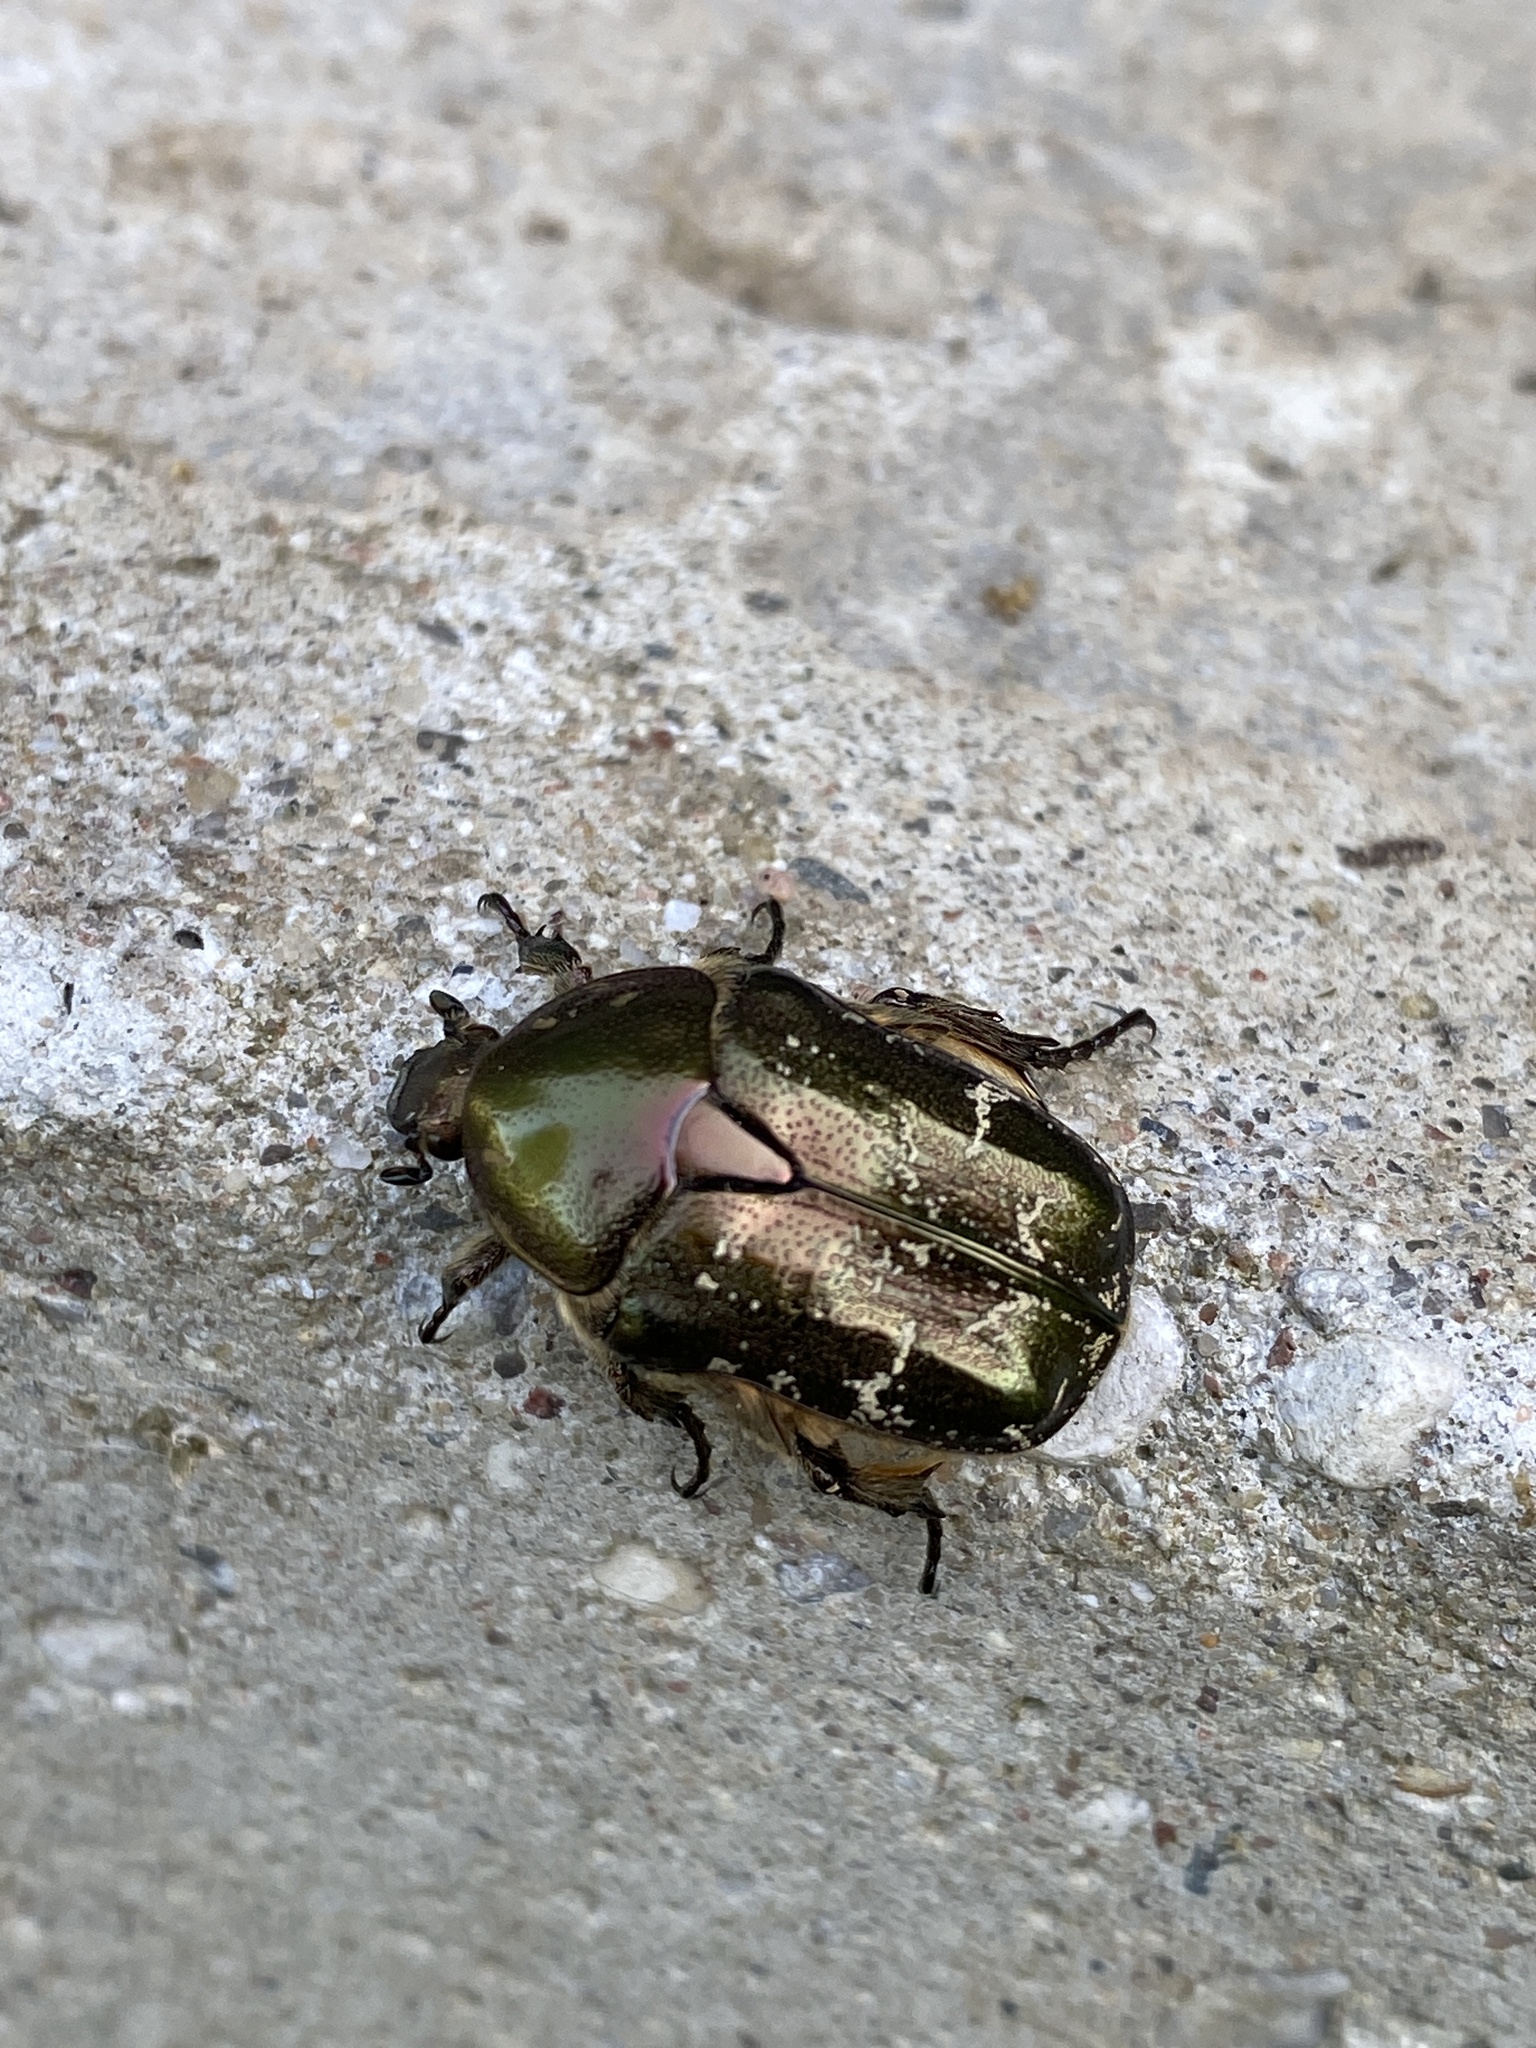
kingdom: Animalia
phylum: Arthropoda
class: Insecta
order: Coleoptera
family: Scarabaeidae
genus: Protaetia
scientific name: Protaetia cuprea
